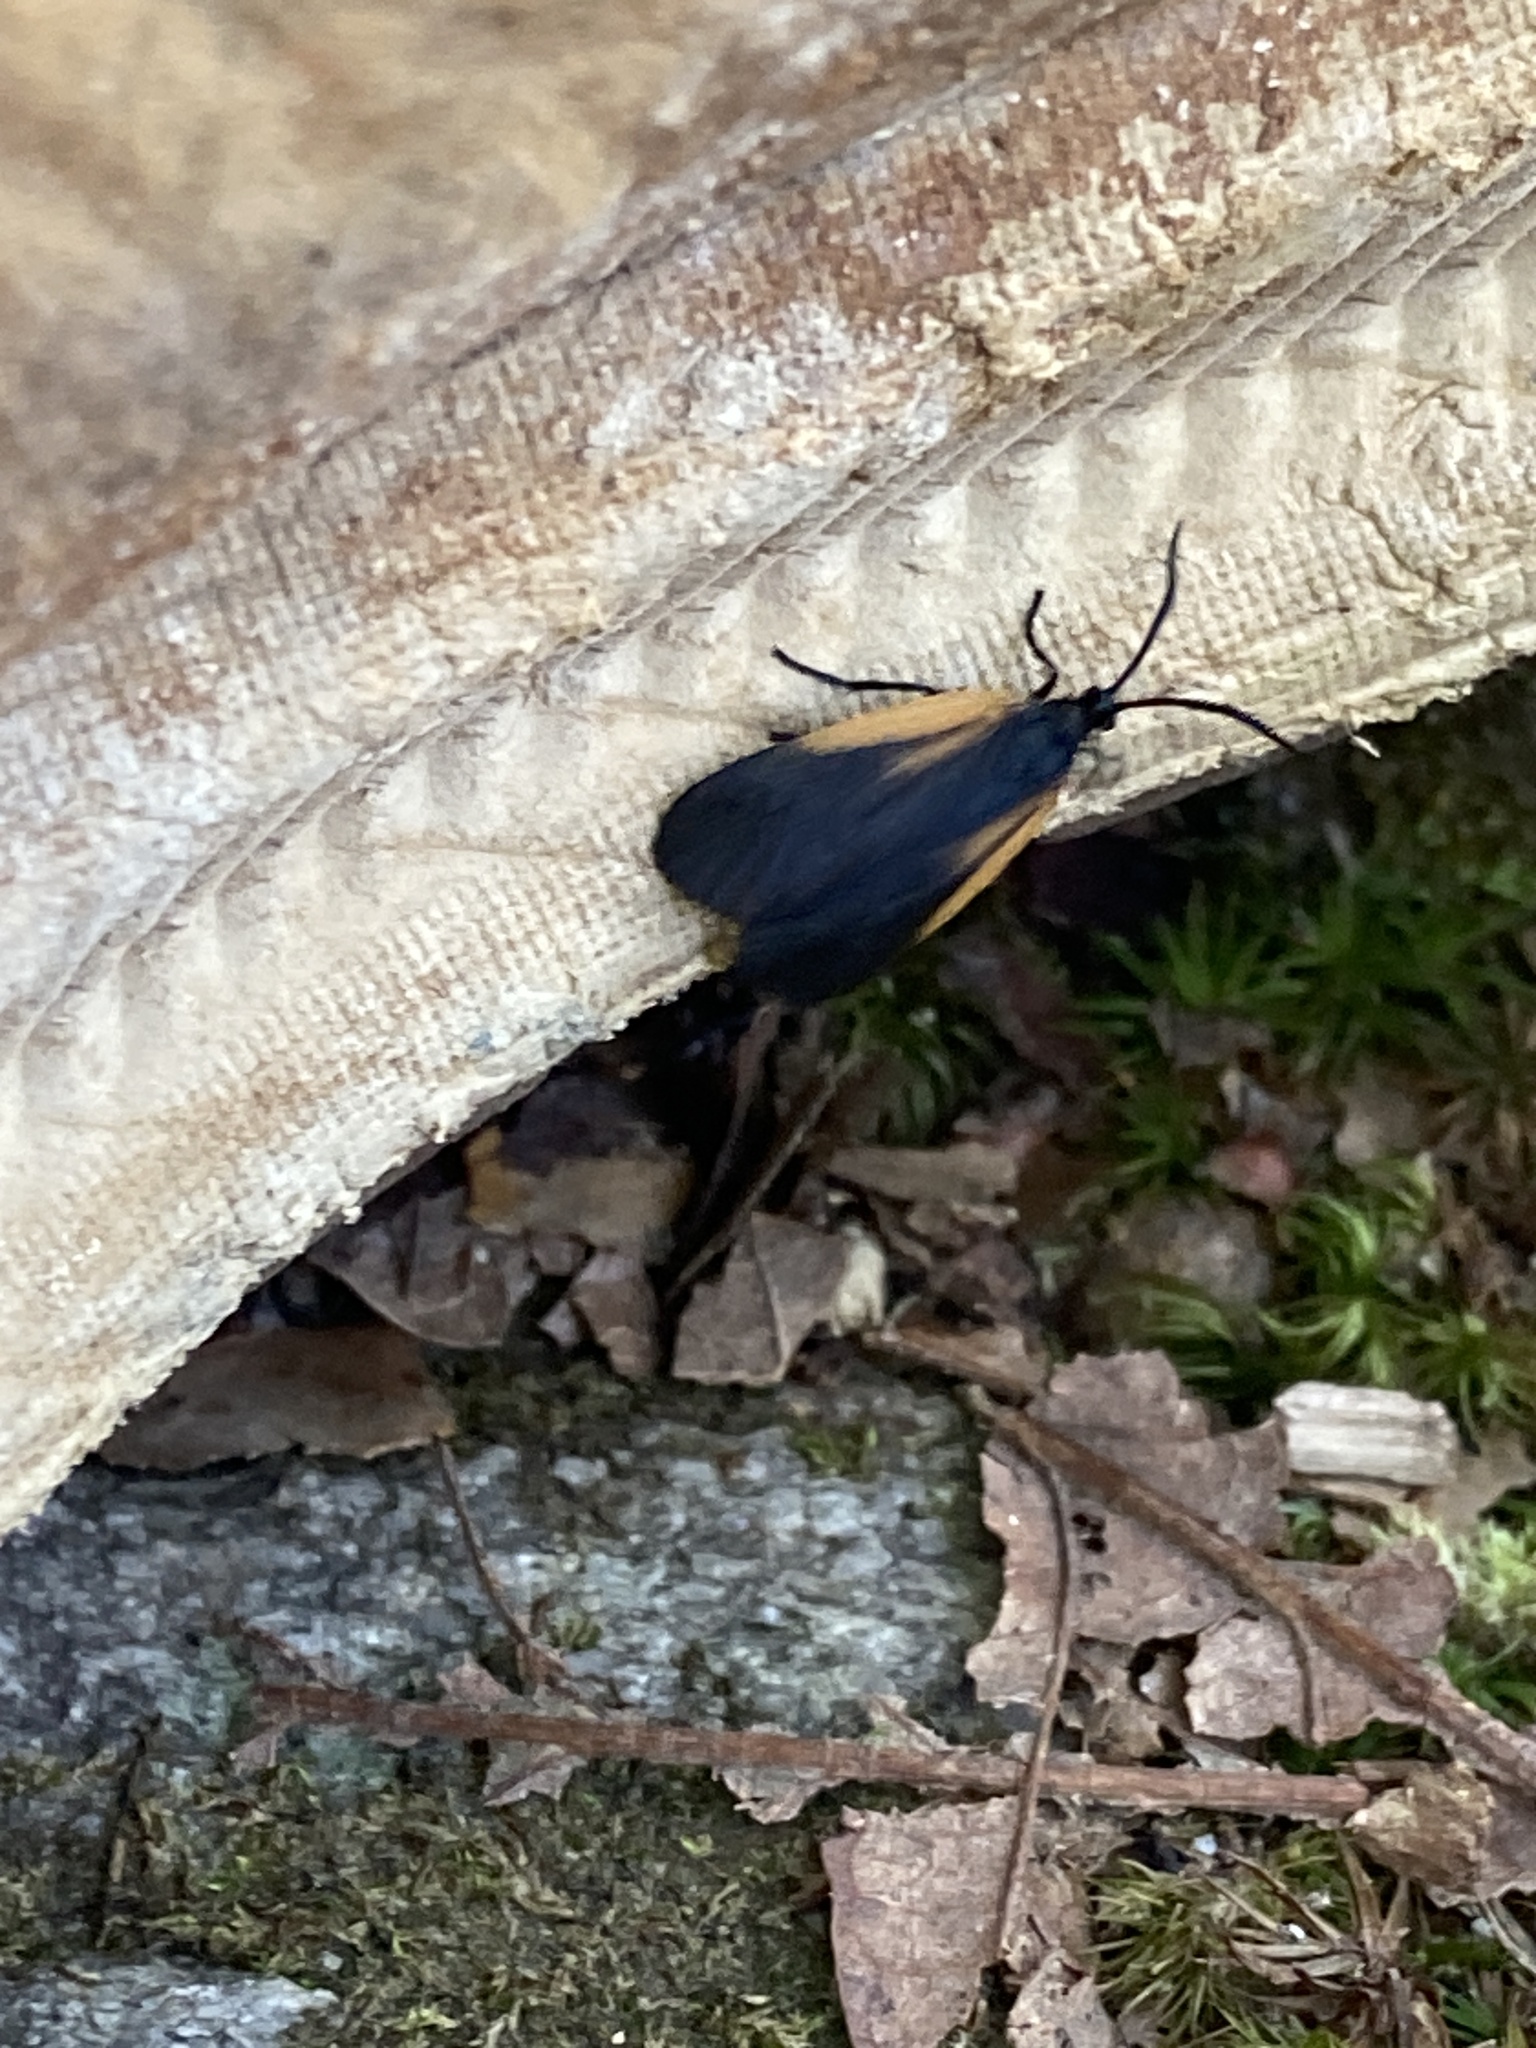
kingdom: Animalia
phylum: Arthropoda
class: Insecta
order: Lepidoptera
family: Zygaenidae
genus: Malthaca
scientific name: Malthaca dimidiata
